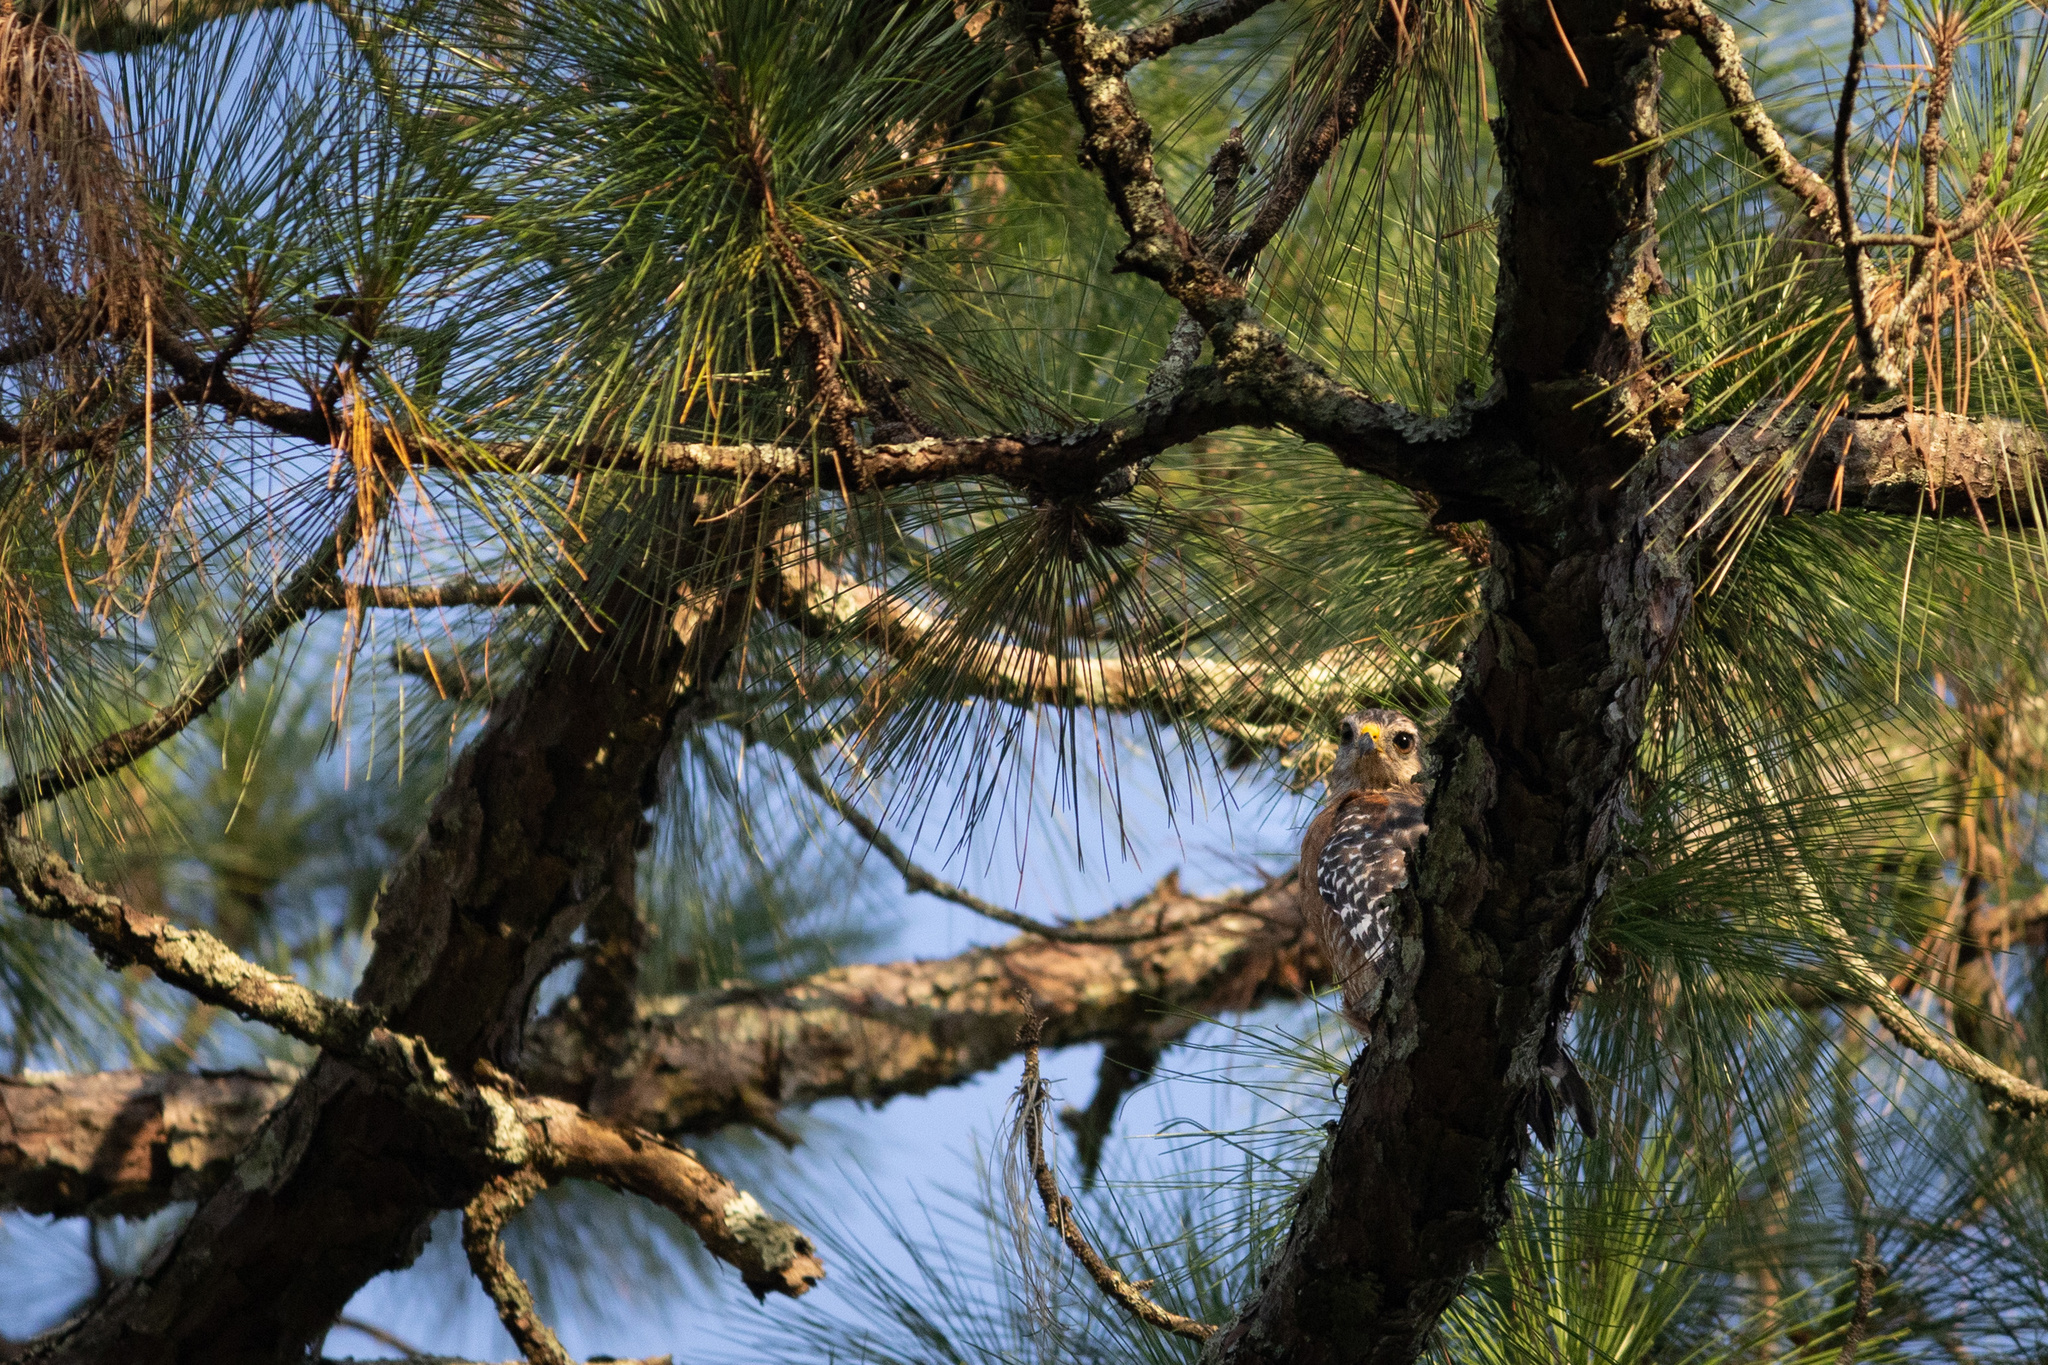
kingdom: Animalia
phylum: Chordata
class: Aves
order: Accipitriformes
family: Accipitridae
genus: Buteo
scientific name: Buteo lineatus
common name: Red-shouldered hawk
